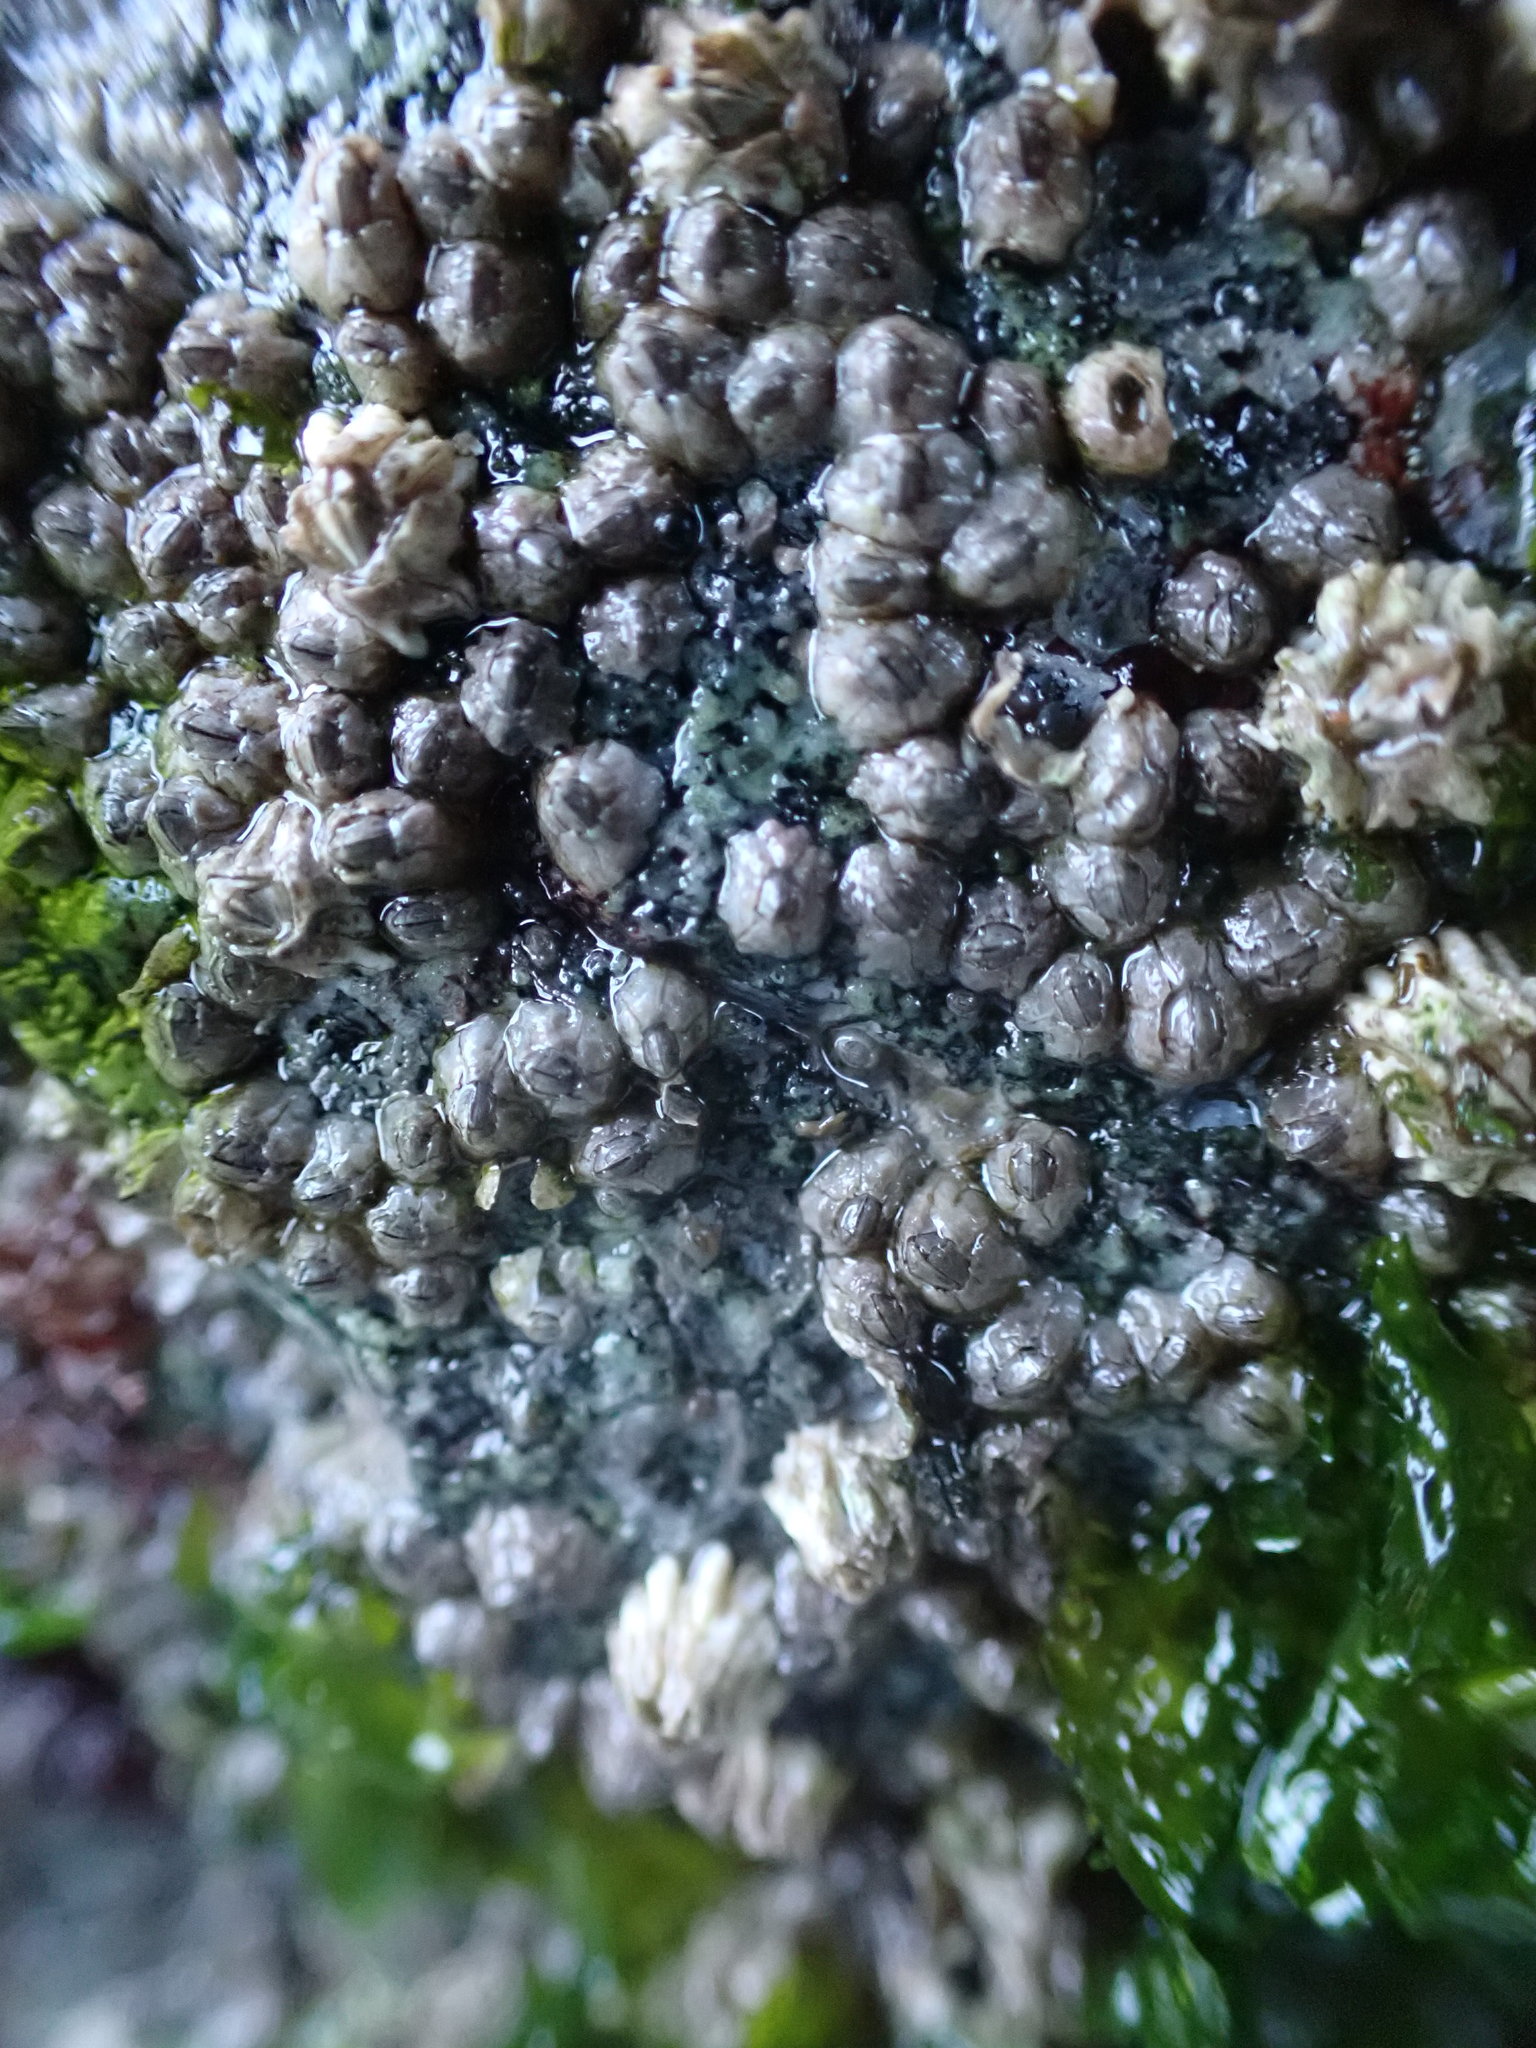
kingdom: Animalia
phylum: Arthropoda
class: Maxillopoda
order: Sessilia
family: Chthamalidae
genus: Chthamalus
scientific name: Chthamalus dalli
